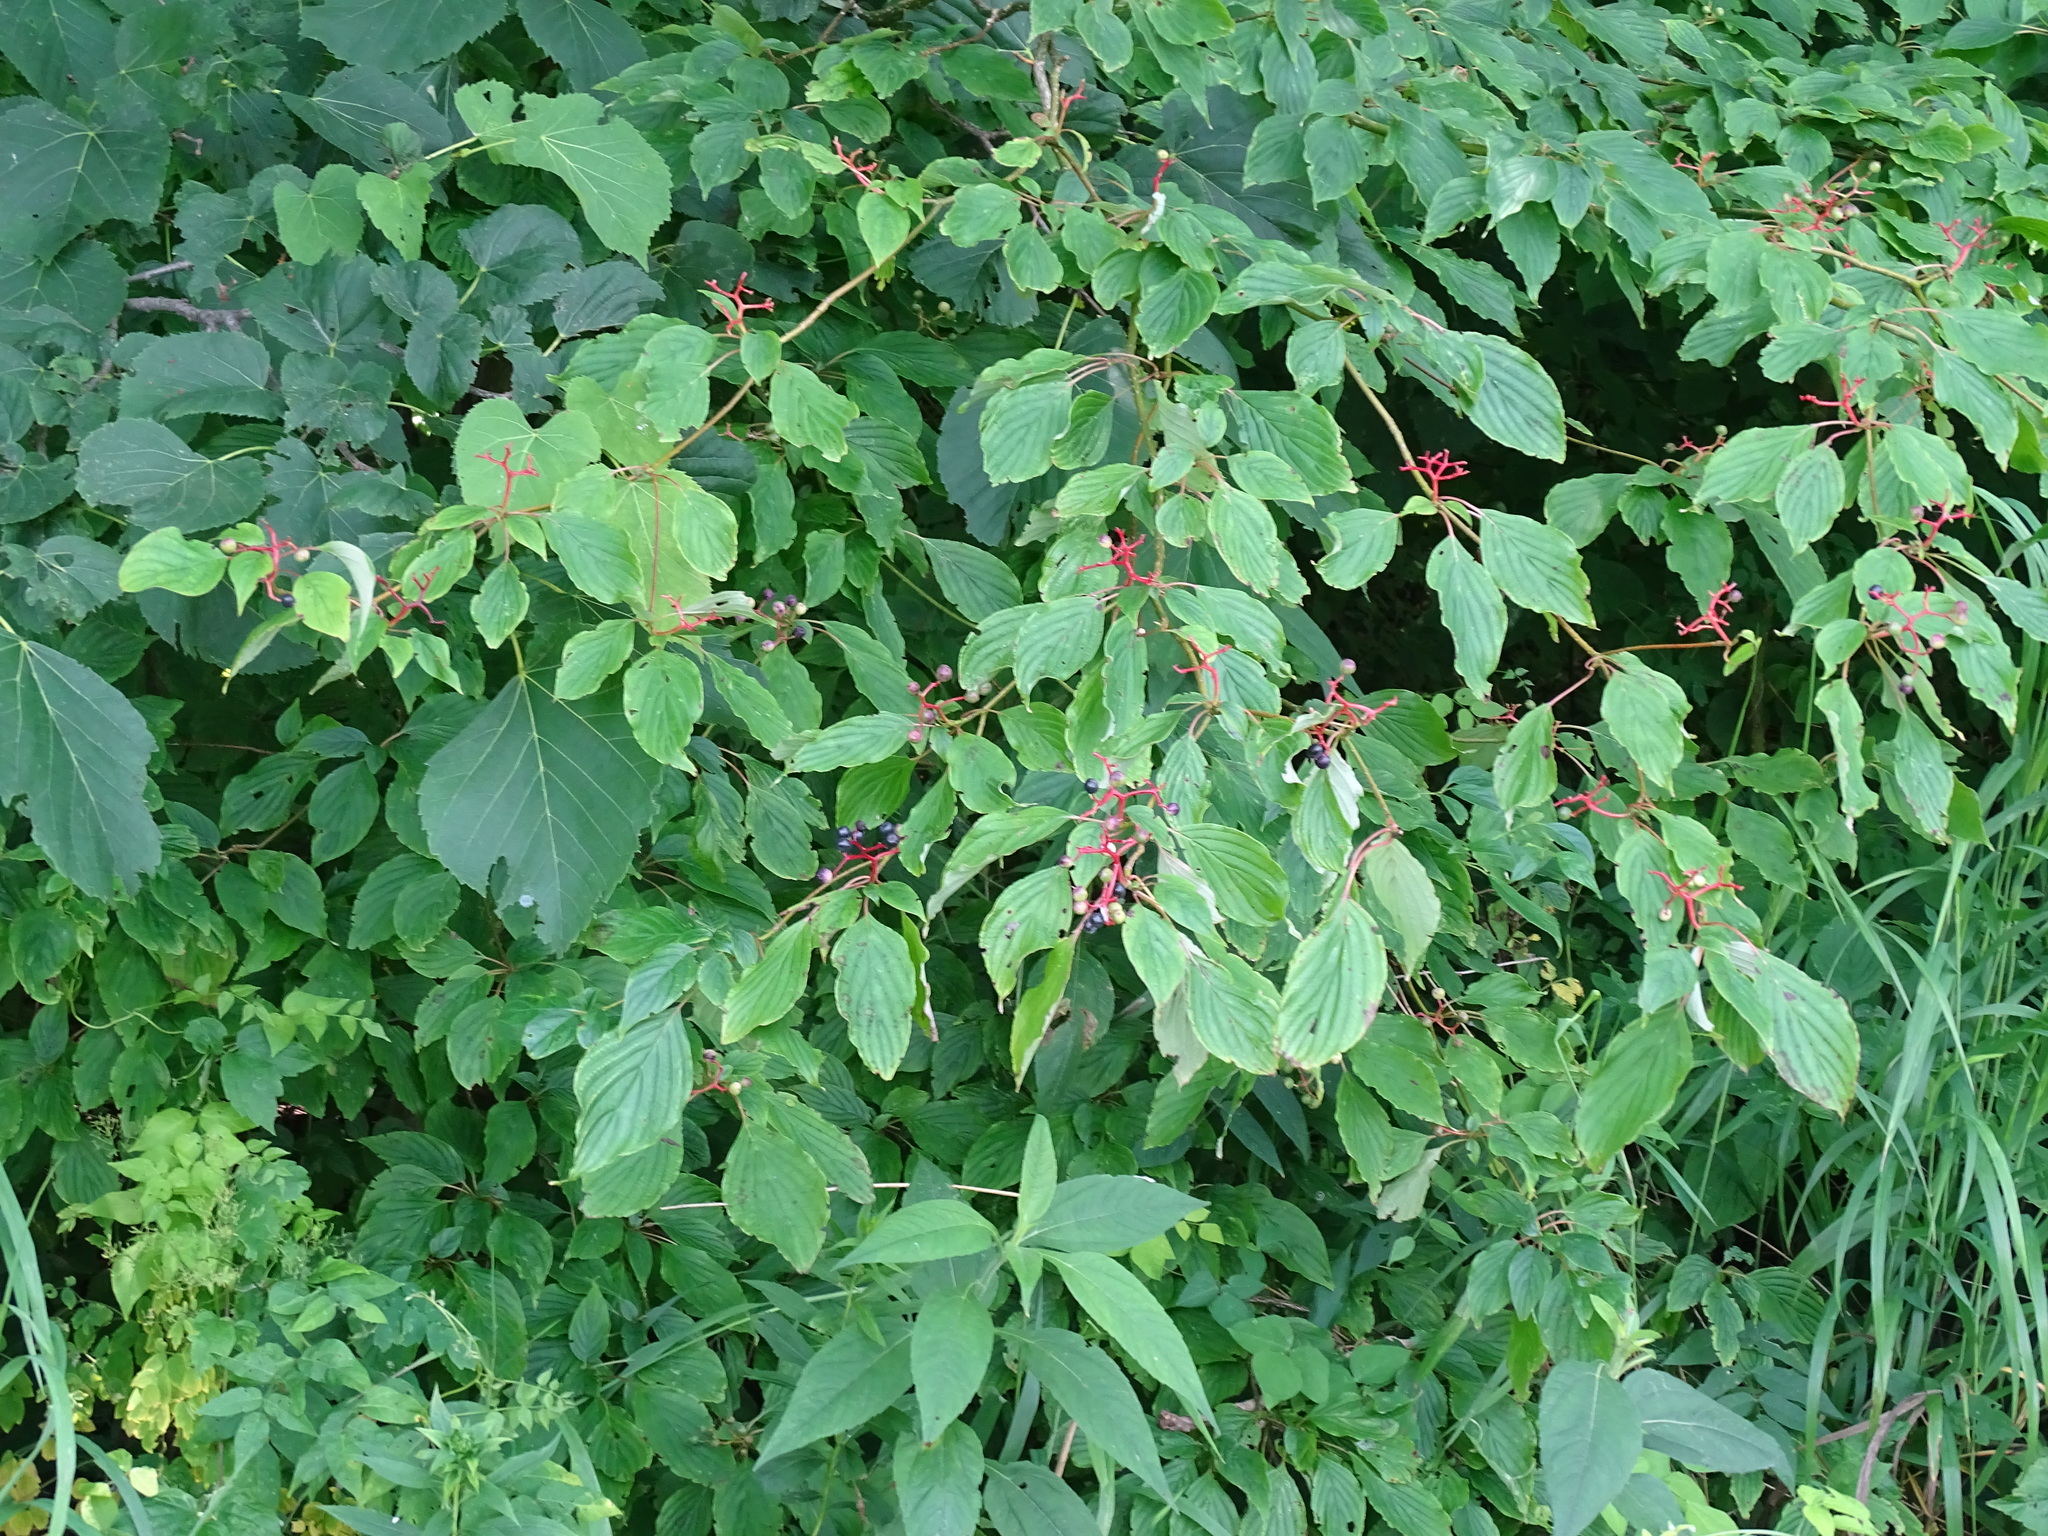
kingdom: Plantae
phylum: Tracheophyta
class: Magnoliopsida
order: Cornales
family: Cornaceae
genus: Cornus
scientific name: Cornus alternifolia
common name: Pagoda dogwood
